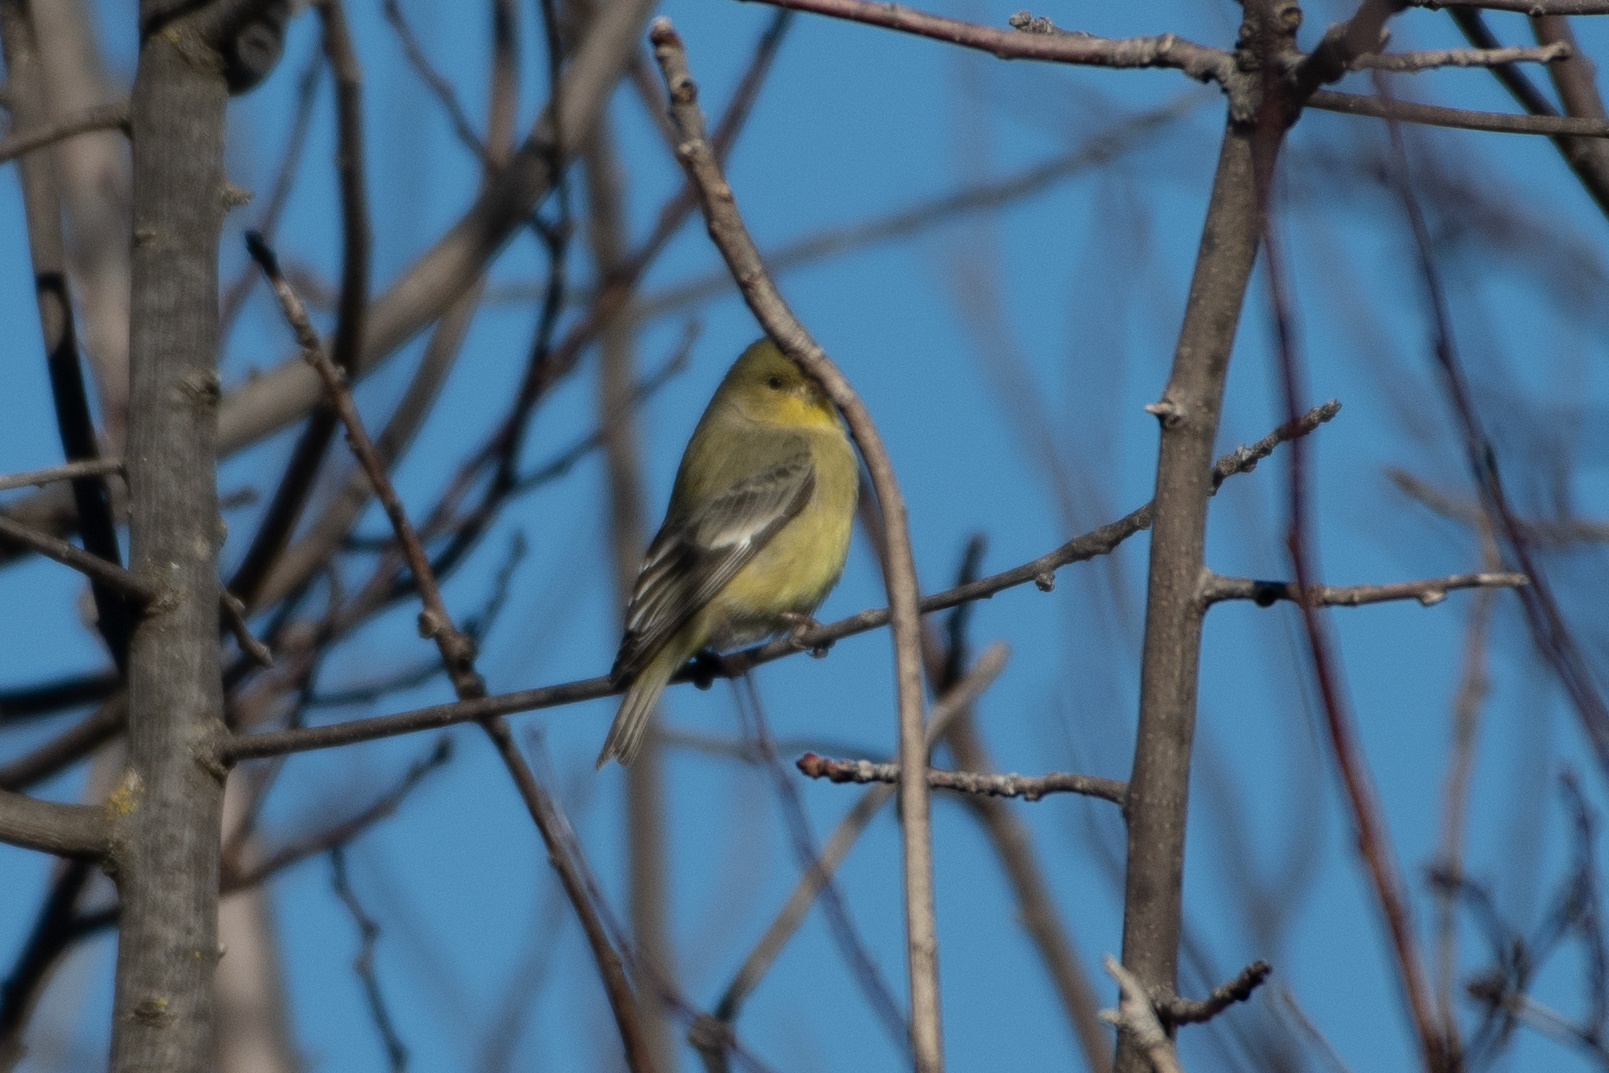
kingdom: Animalia
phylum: Chordata
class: Aves
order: Passeriformes
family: Fringillidae
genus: Spinus
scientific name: Spinus psaltria
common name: Lesser goldfinch
